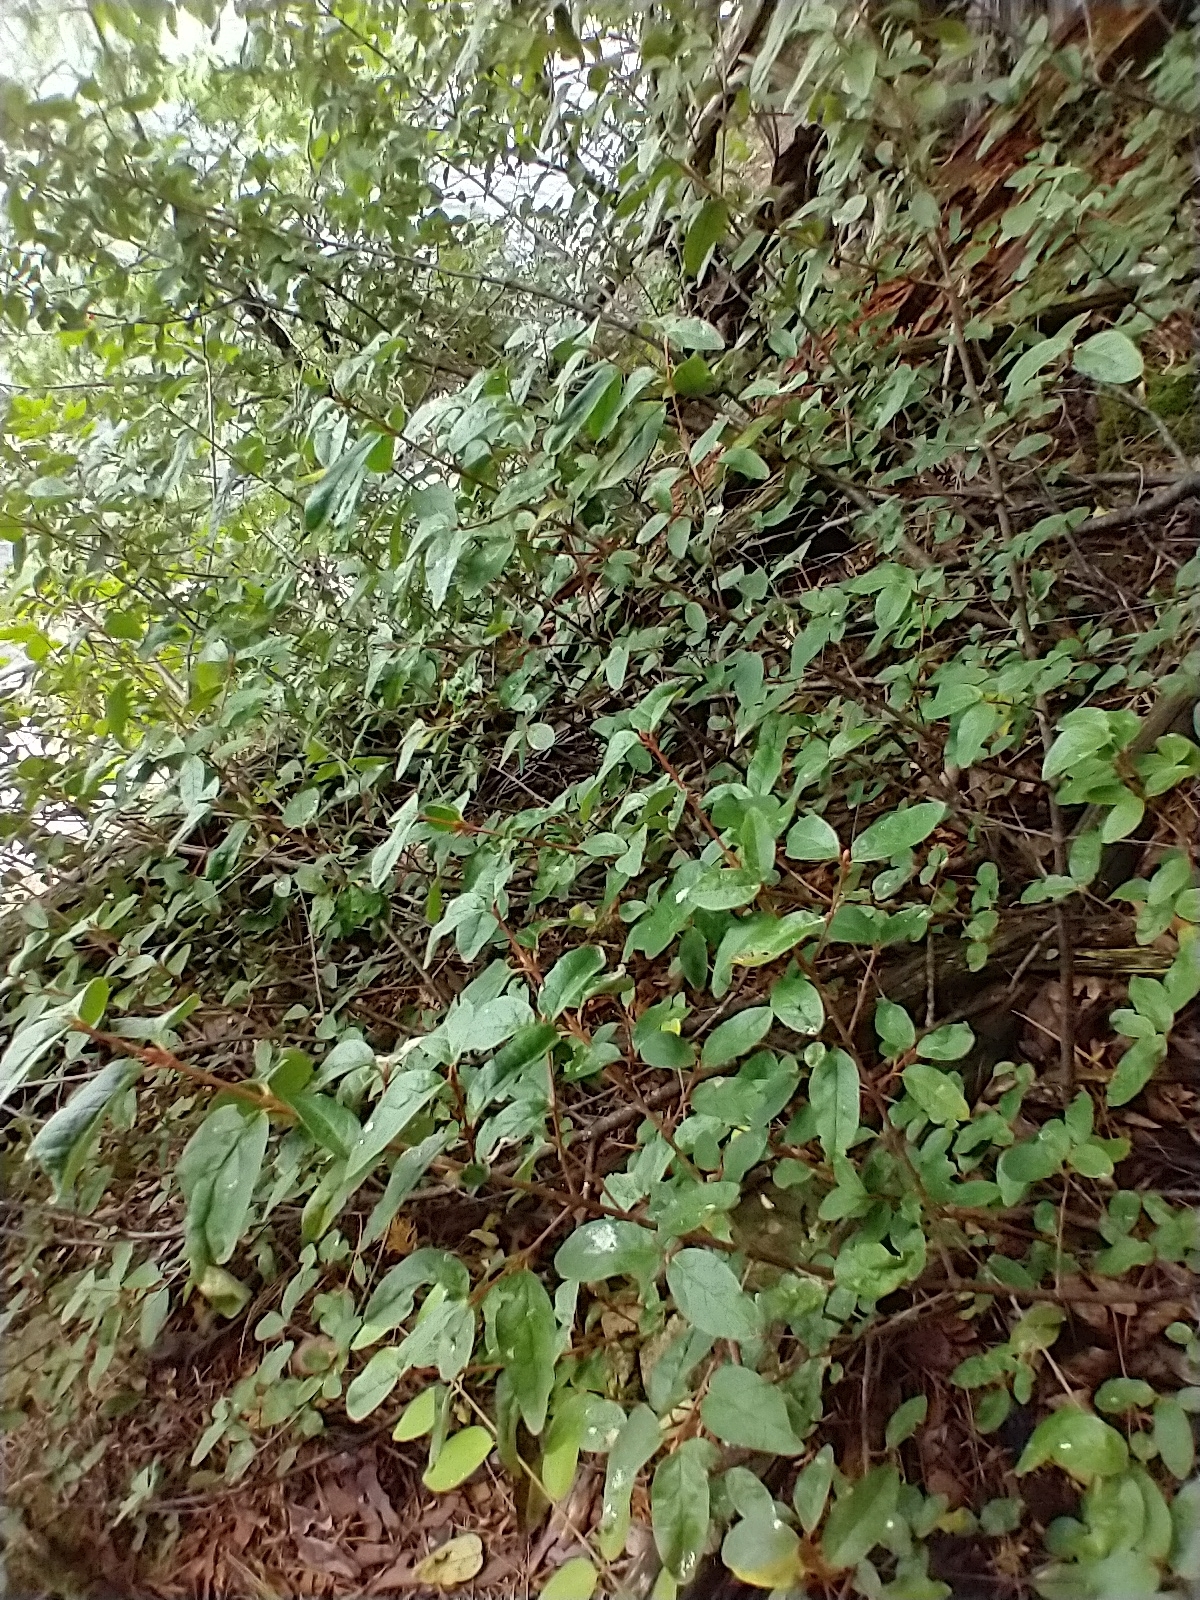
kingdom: Plantae
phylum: Tracheophyta
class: Magnoliopsida
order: Rosales
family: Elaeagnaceae
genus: Shepherdia
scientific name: Shepherdia canadensis
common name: Soapberry
